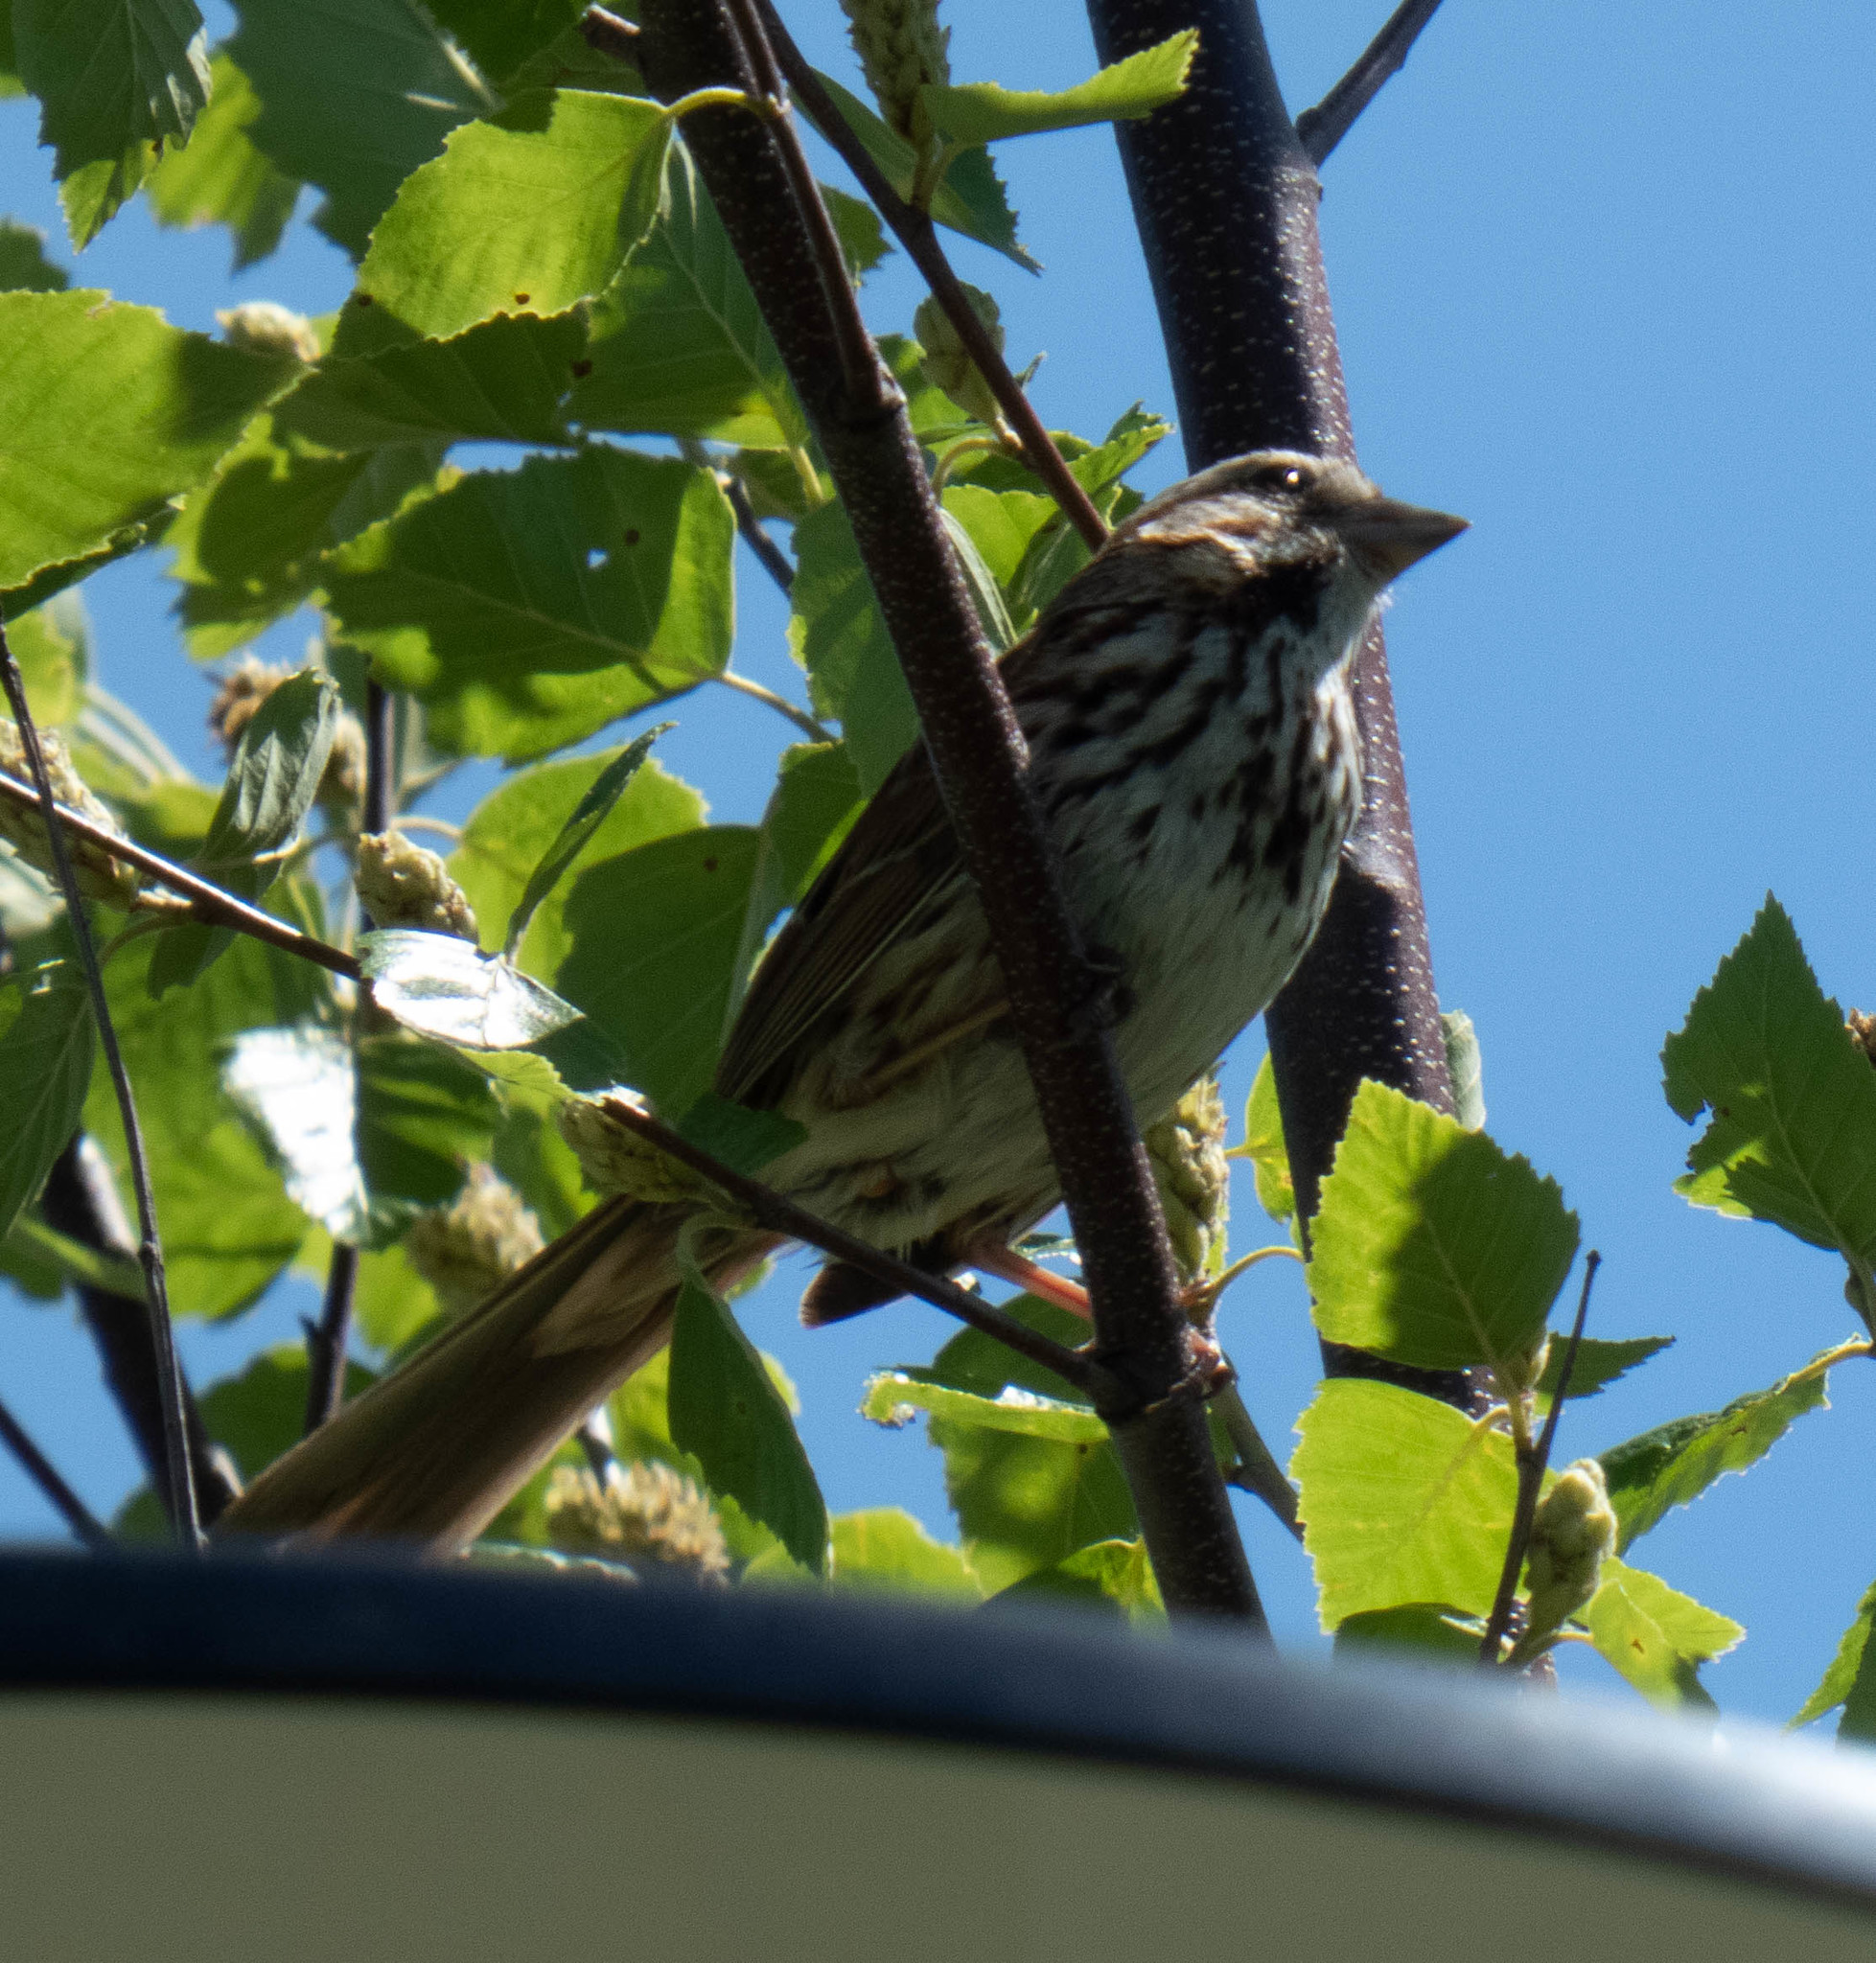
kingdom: Animalia
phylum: Chordata
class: Aves
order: Passeriformes
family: Passerellidae
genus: Melospiza
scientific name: Melospiza melodia
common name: Song sparrow
